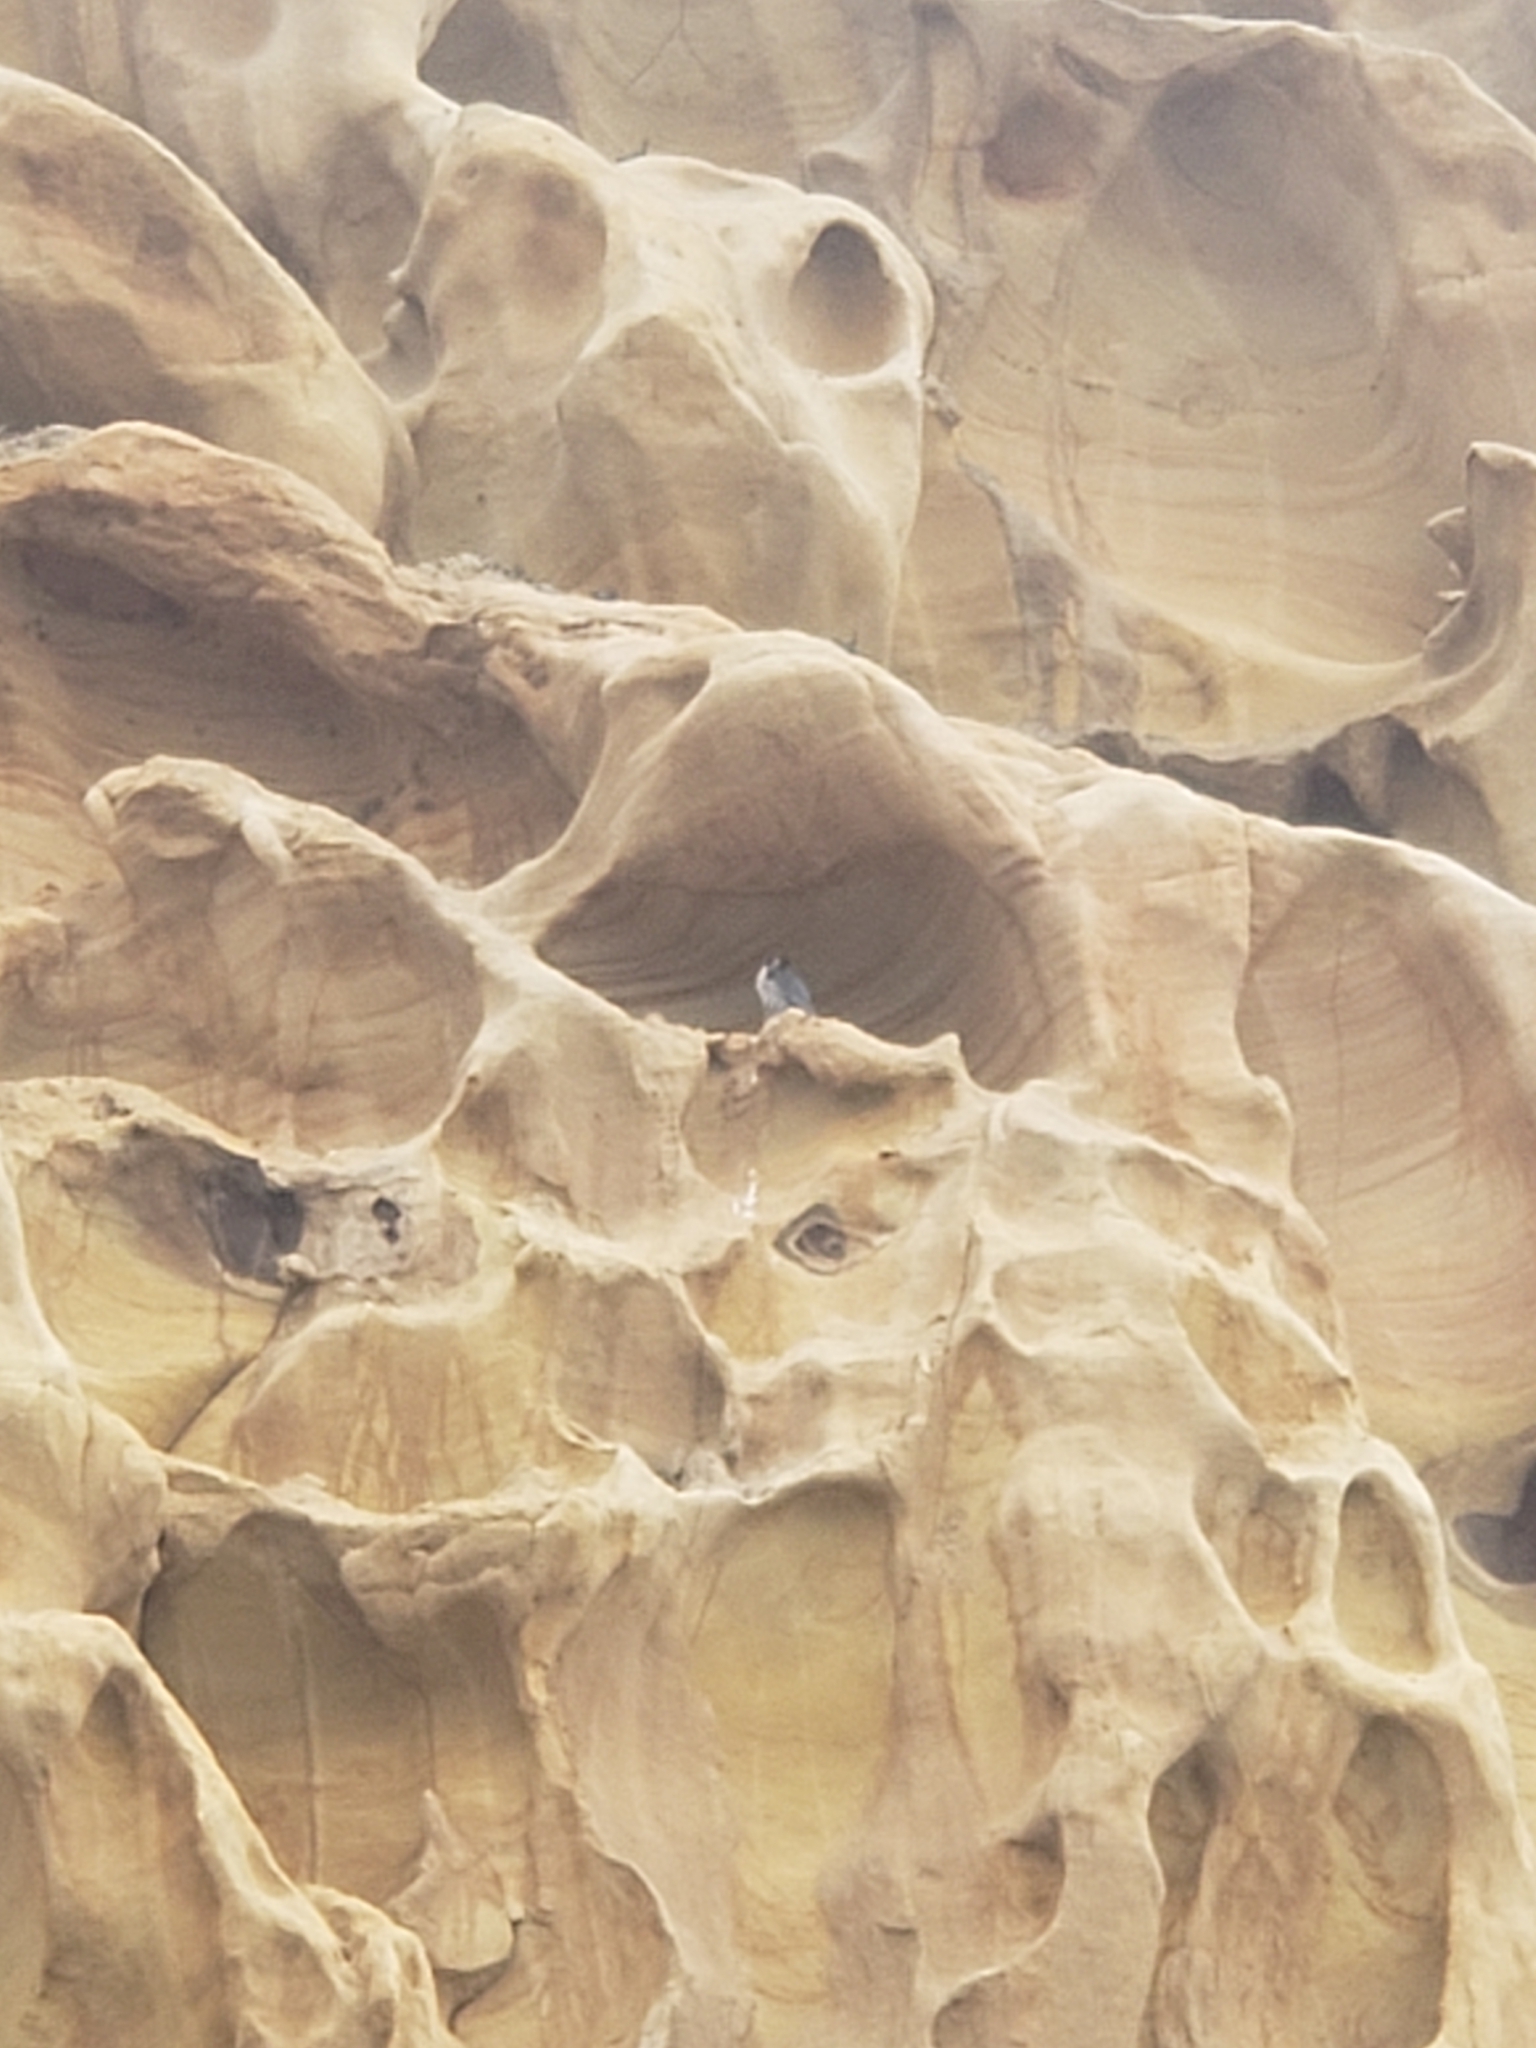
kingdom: Animalia
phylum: Chordata
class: Aves
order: Falconiformes
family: Falconidae
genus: Falco
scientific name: Falco peregrinus
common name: Peregrine falcon
